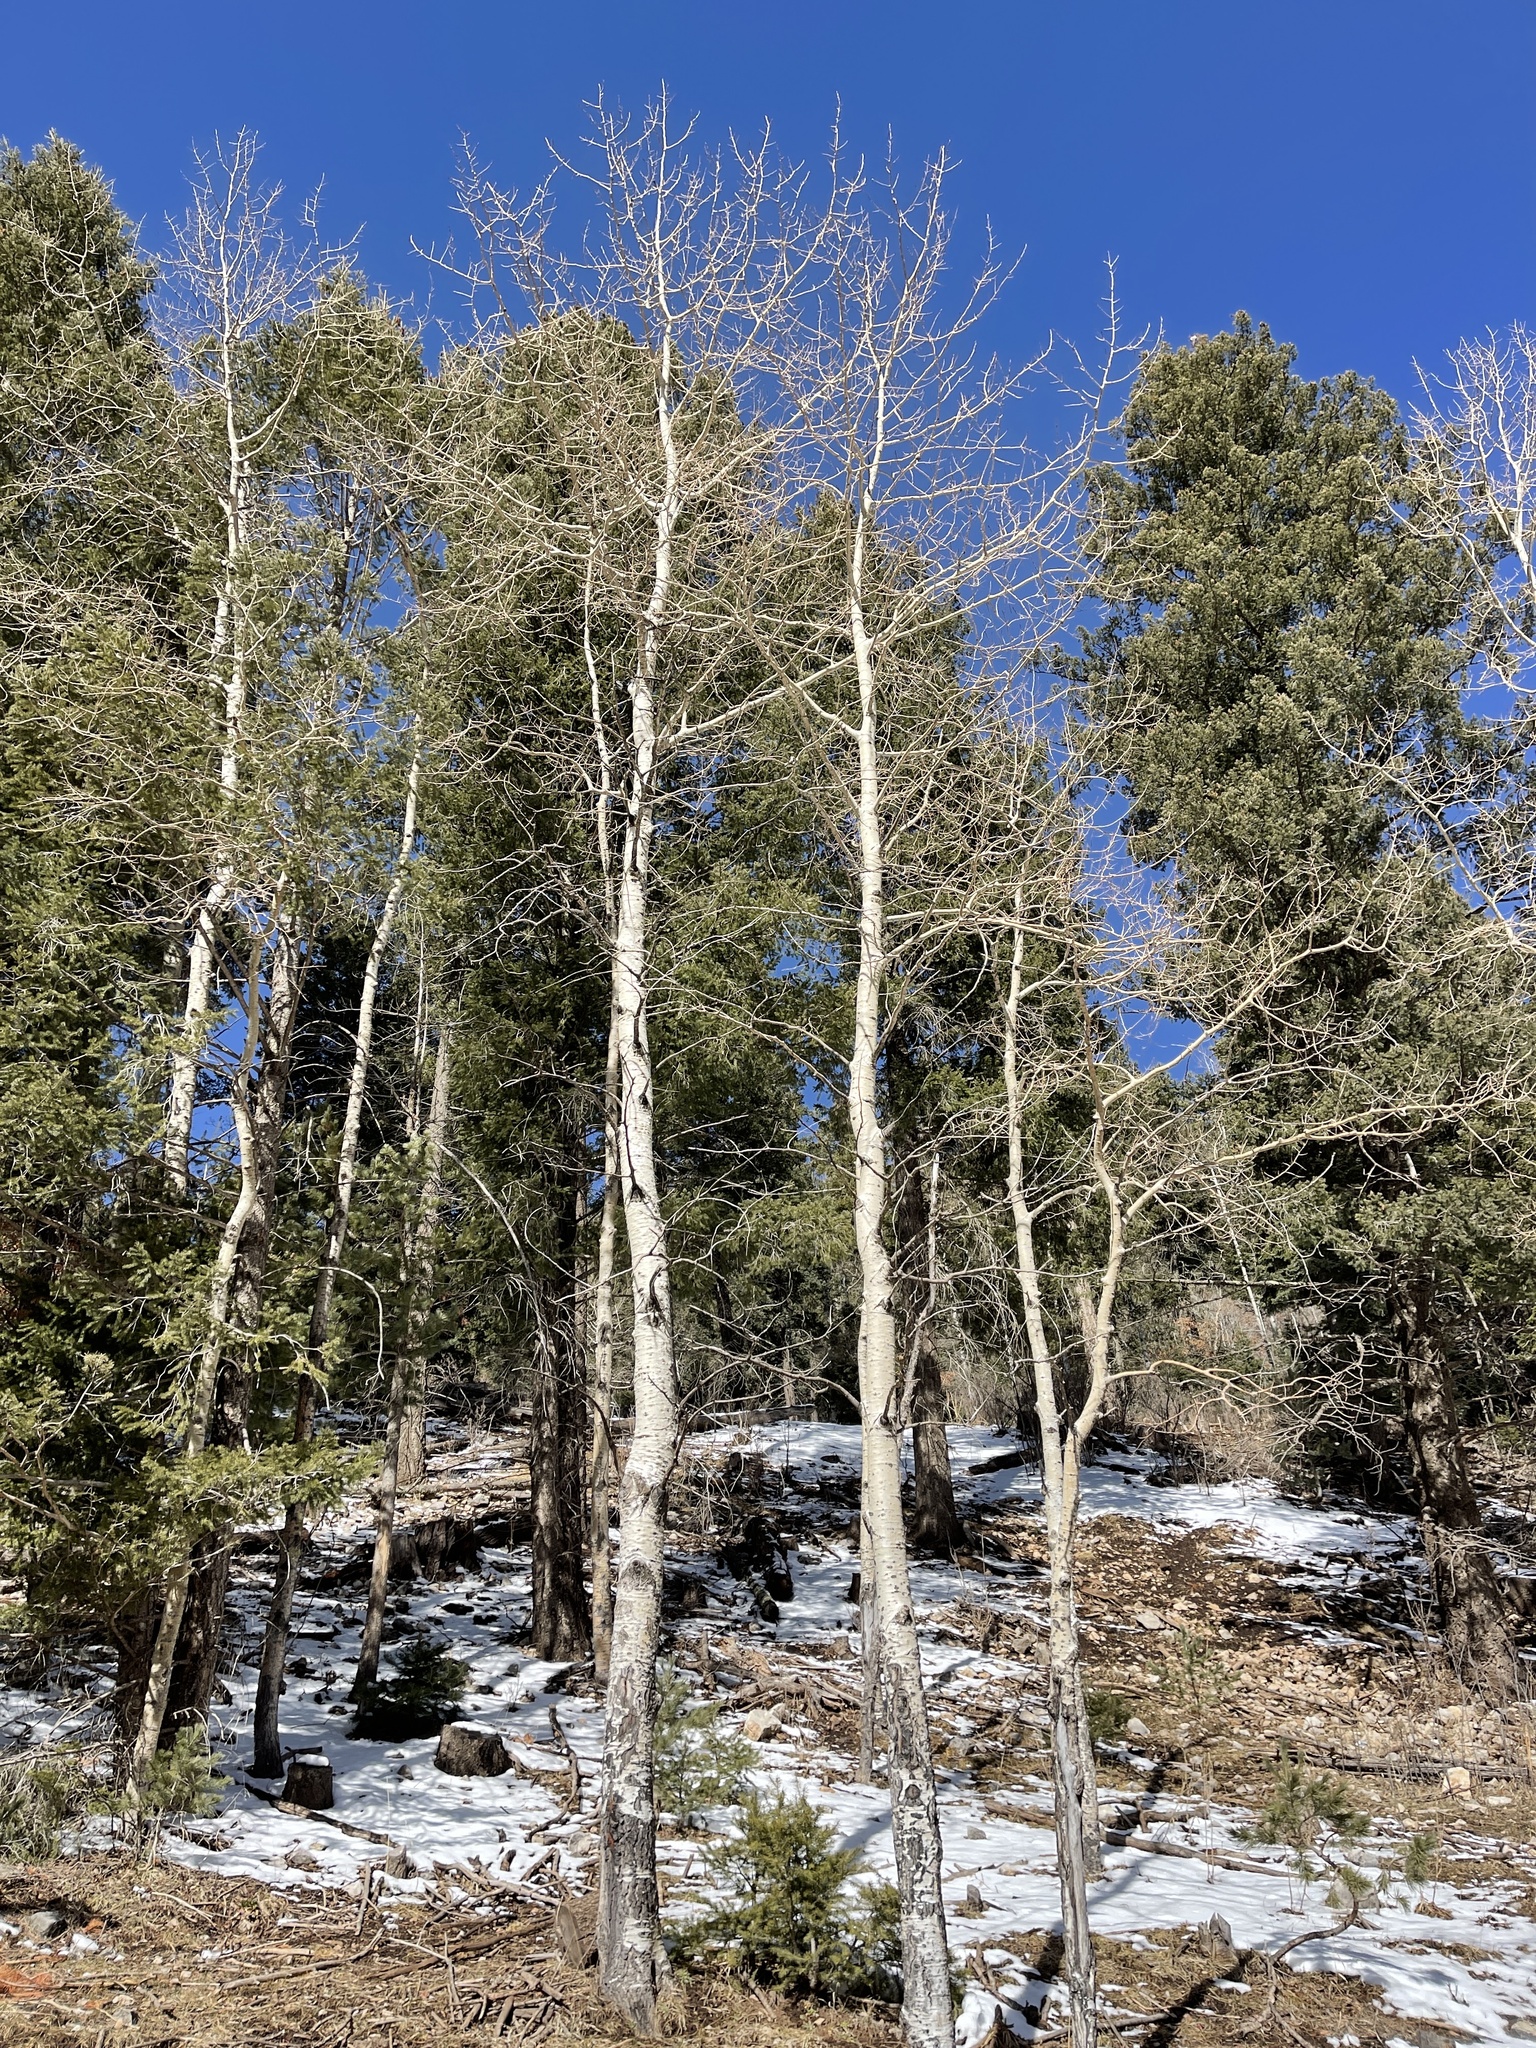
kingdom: Plantae
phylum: Tracheophyta
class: Magnoliopsida
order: Malpighiales
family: Salicaceae
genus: Populus
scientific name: Populus tremuloides
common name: Quaking aspen
